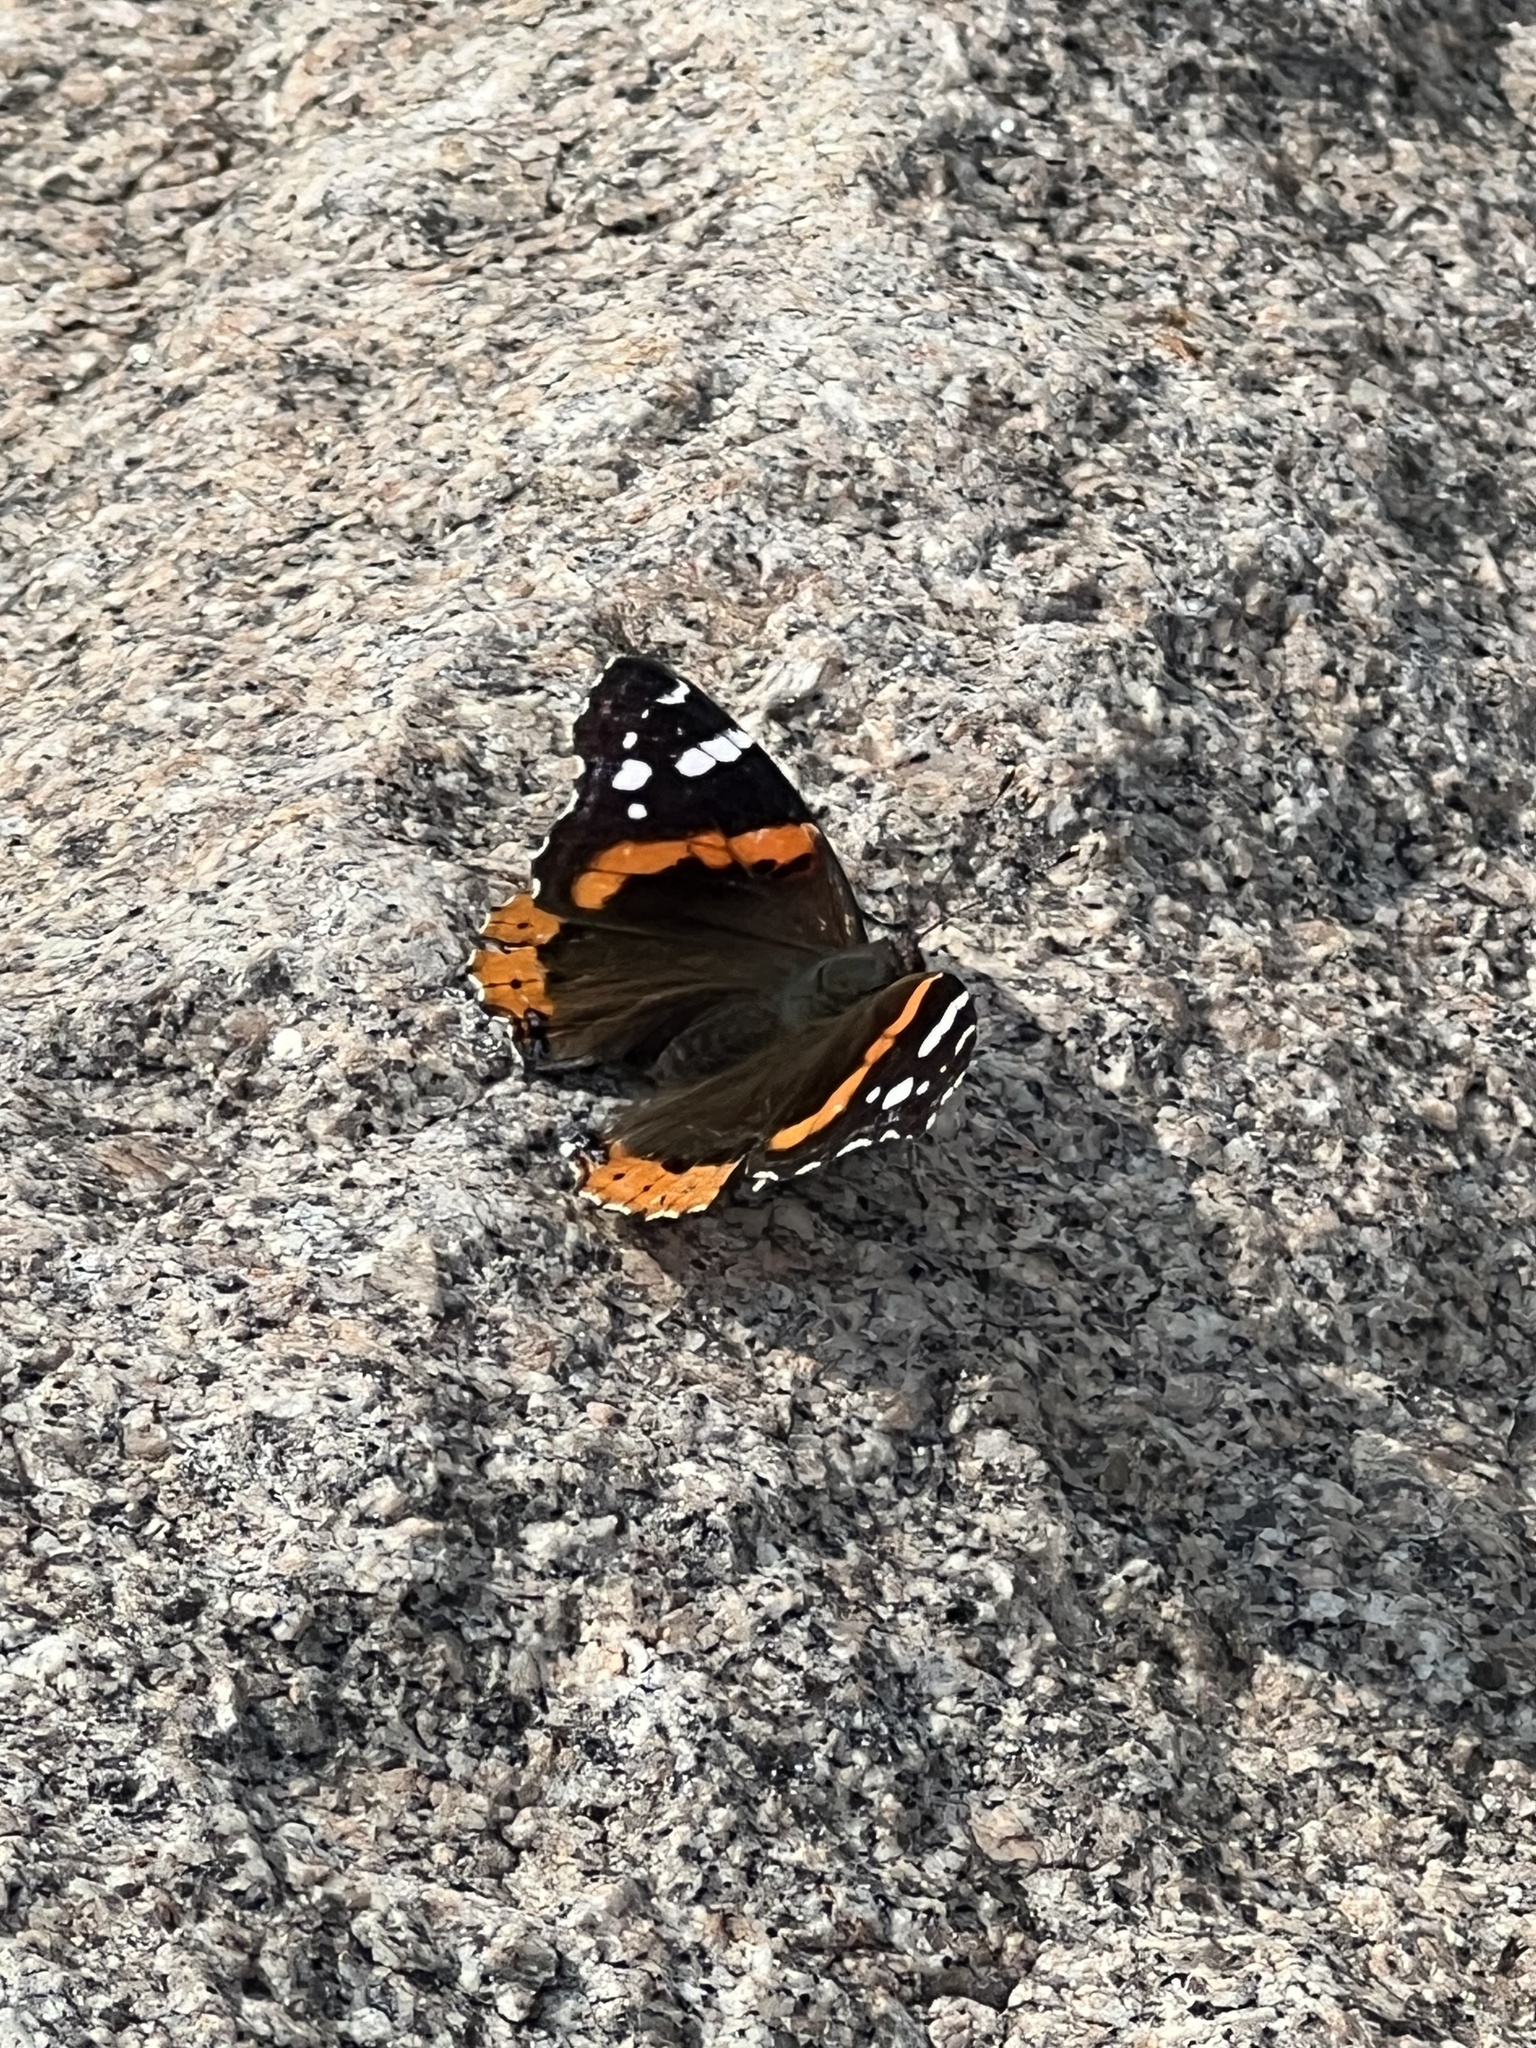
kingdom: Animalia
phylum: Arthropoda
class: Insecta
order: Lepidoptera
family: Nymphalidae
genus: Vanessa
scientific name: Vanessa atalanta
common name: Red admiral
